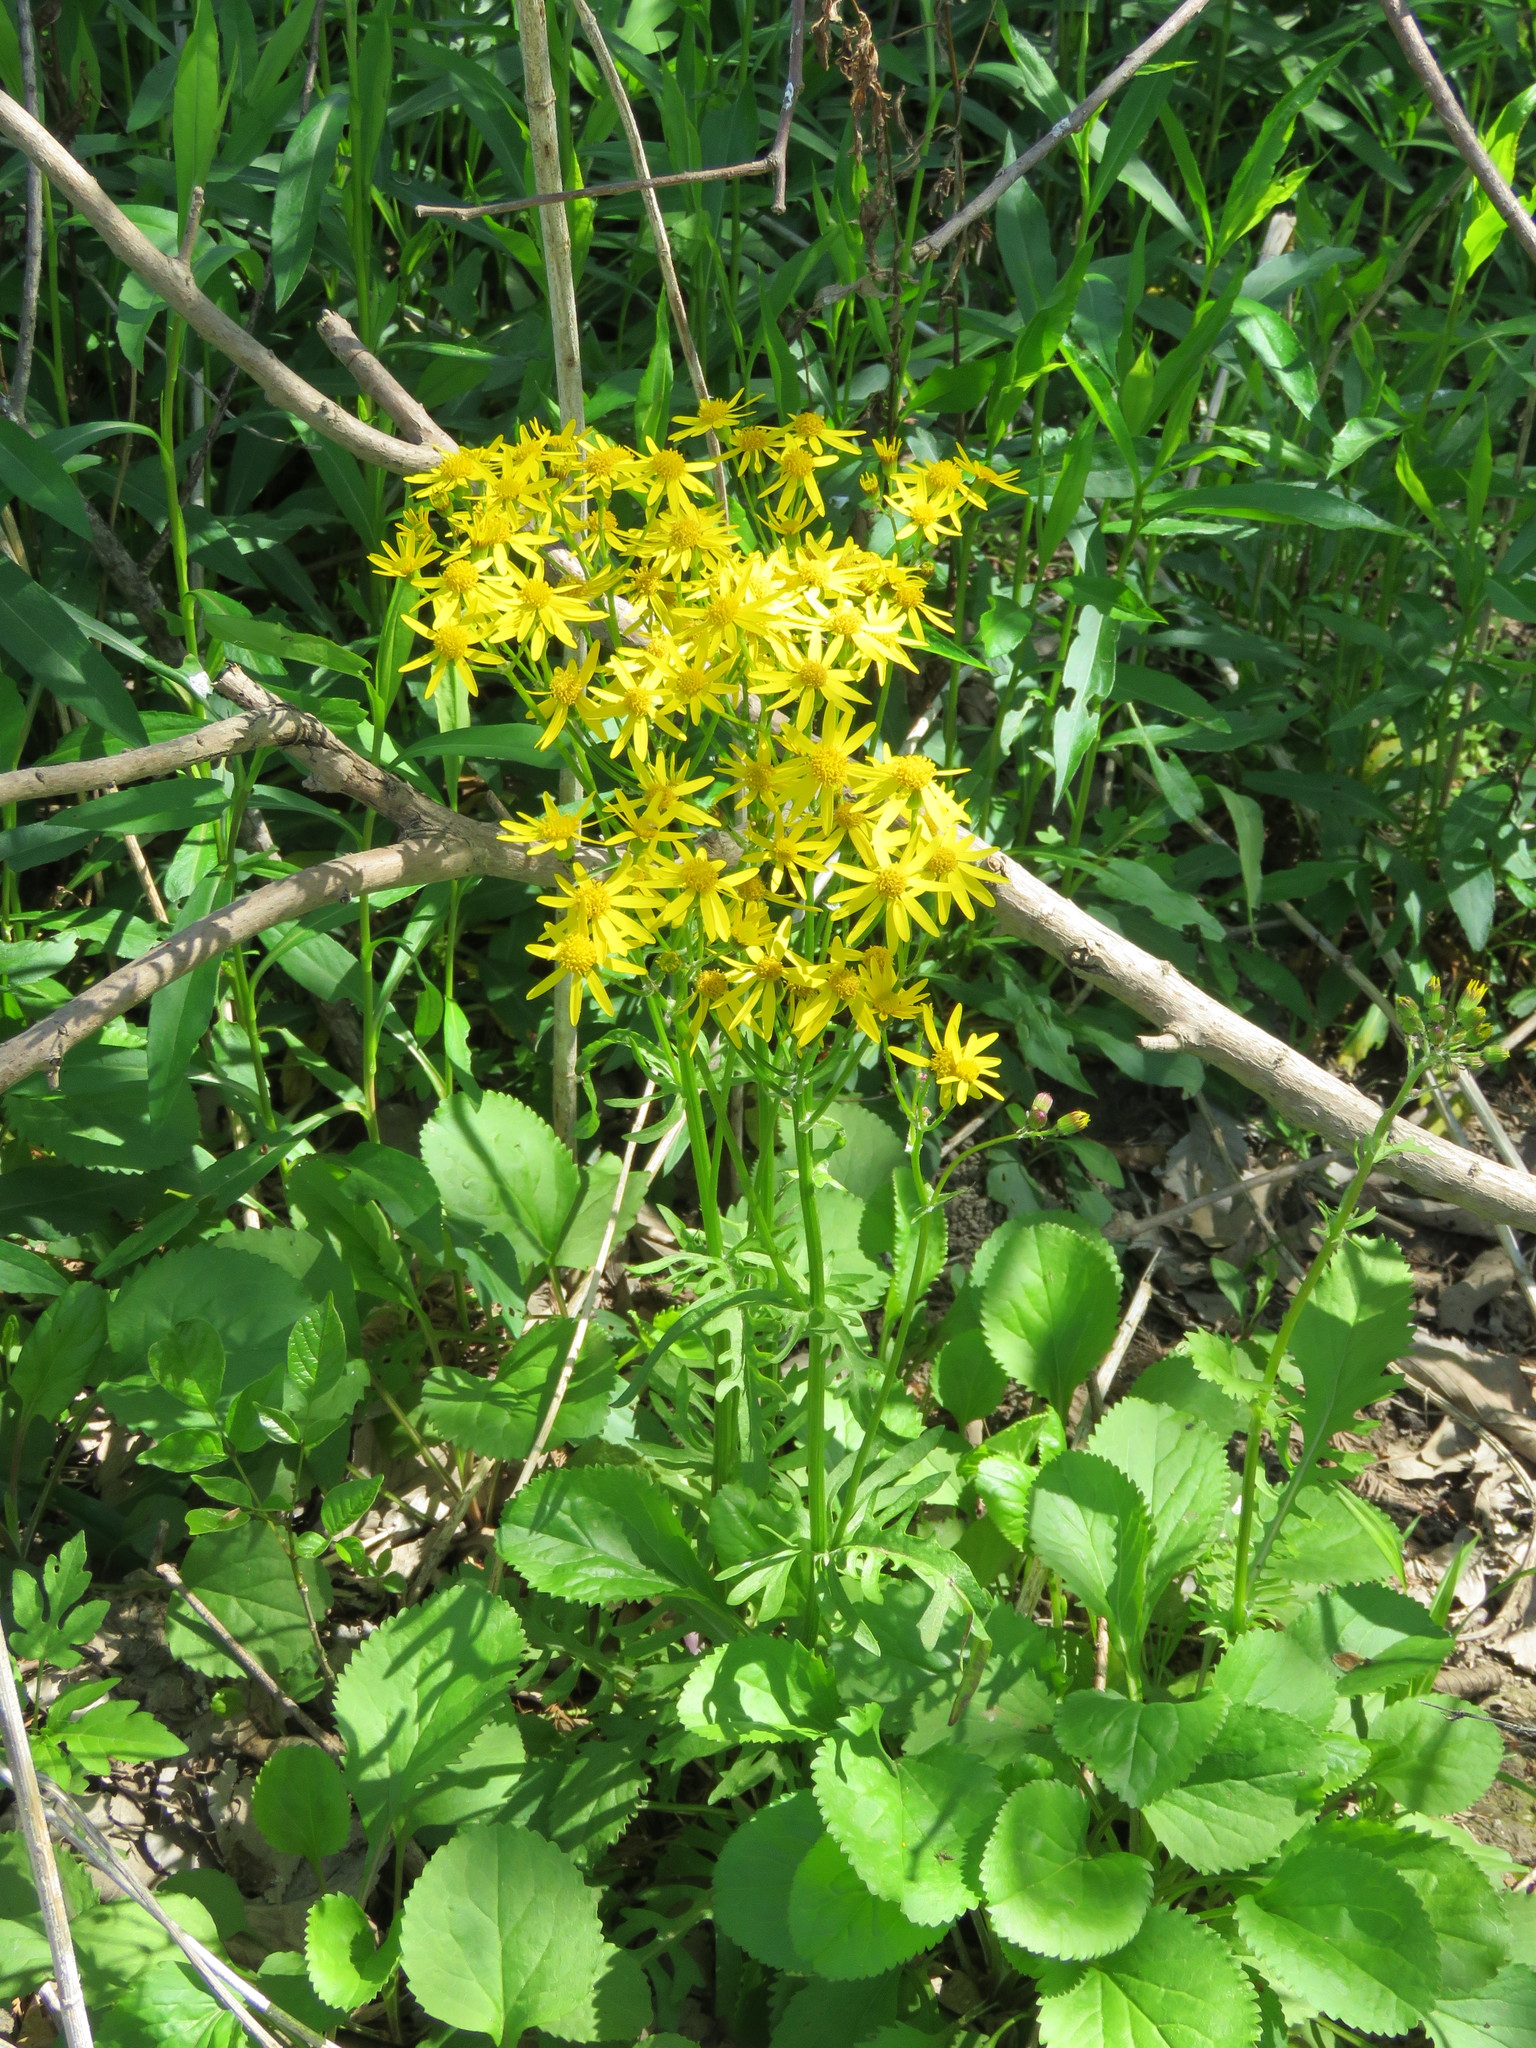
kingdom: Plantae
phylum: Tracheophyta
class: Magnoliopsida
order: Asterales
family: Asteraceae
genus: Packera
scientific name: Packera obovata
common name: Round-leaf ragwort
